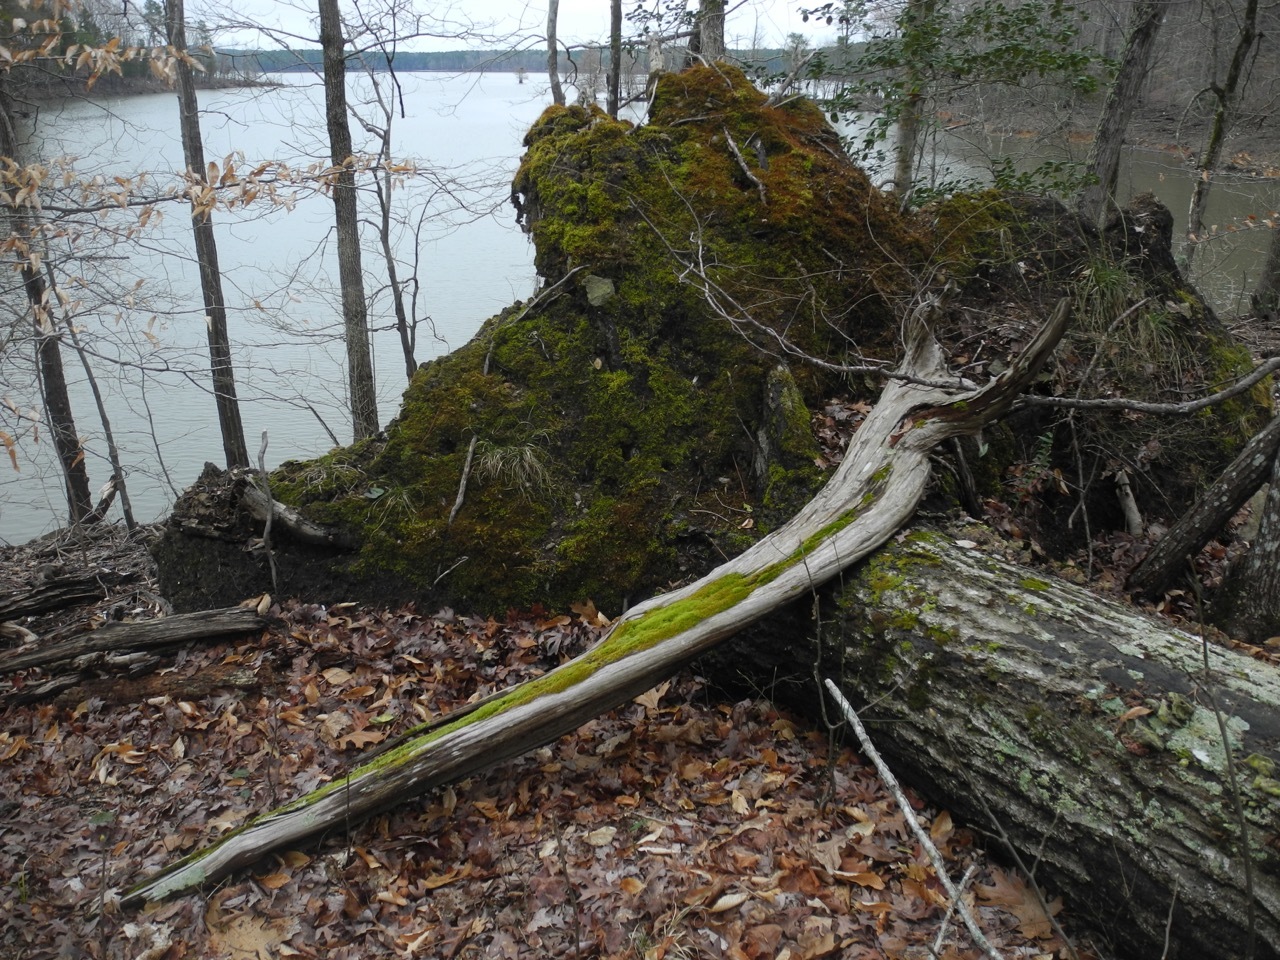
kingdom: Plantae
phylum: Tracheophyta
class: Magnoliopsida
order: Fagales
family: Fagaceae
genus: Quercus
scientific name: Quercus rubra
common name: Red oak
